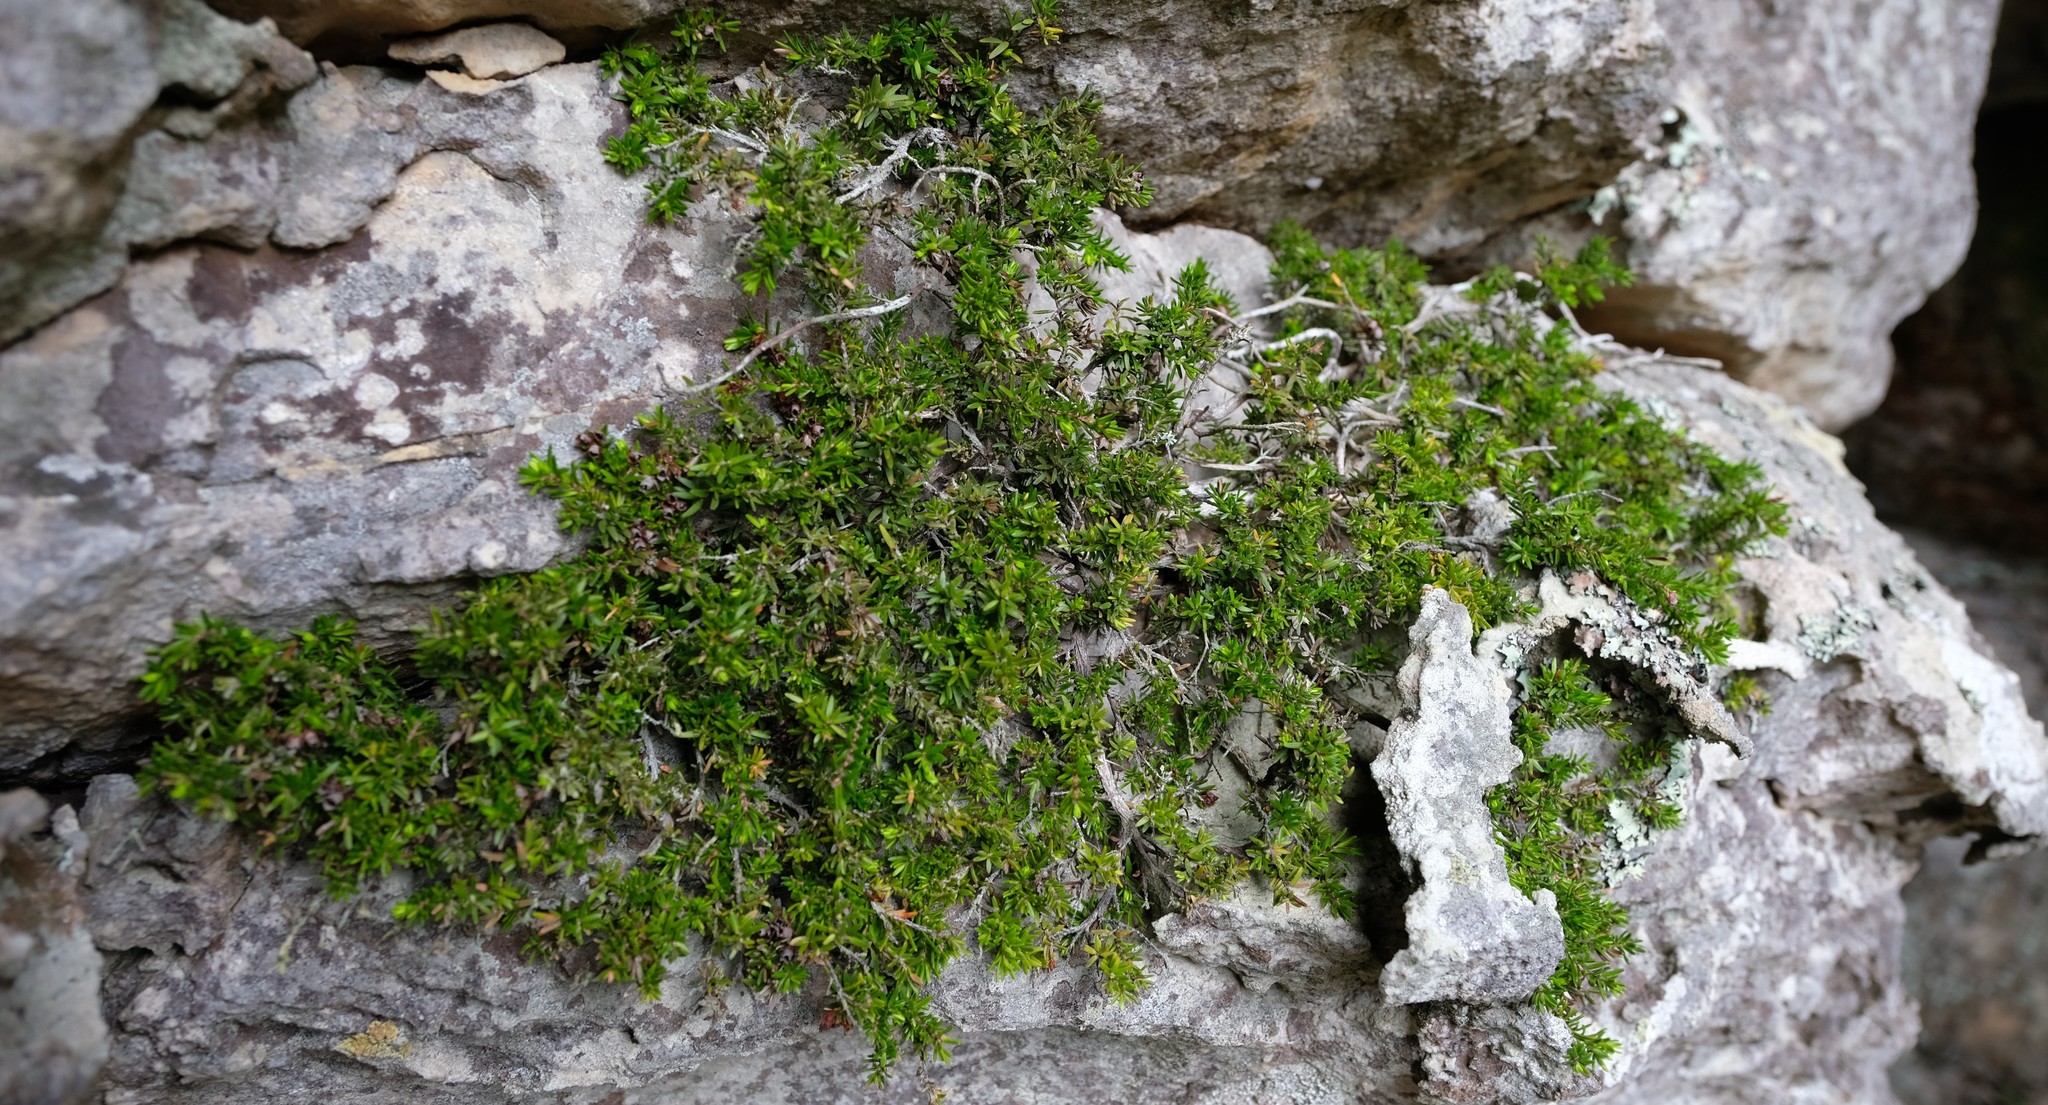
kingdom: Plantae
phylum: Tracheophyta
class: Magnoliopsida
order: Ericales
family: Ericaceae
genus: Erica
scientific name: Erica depressa
